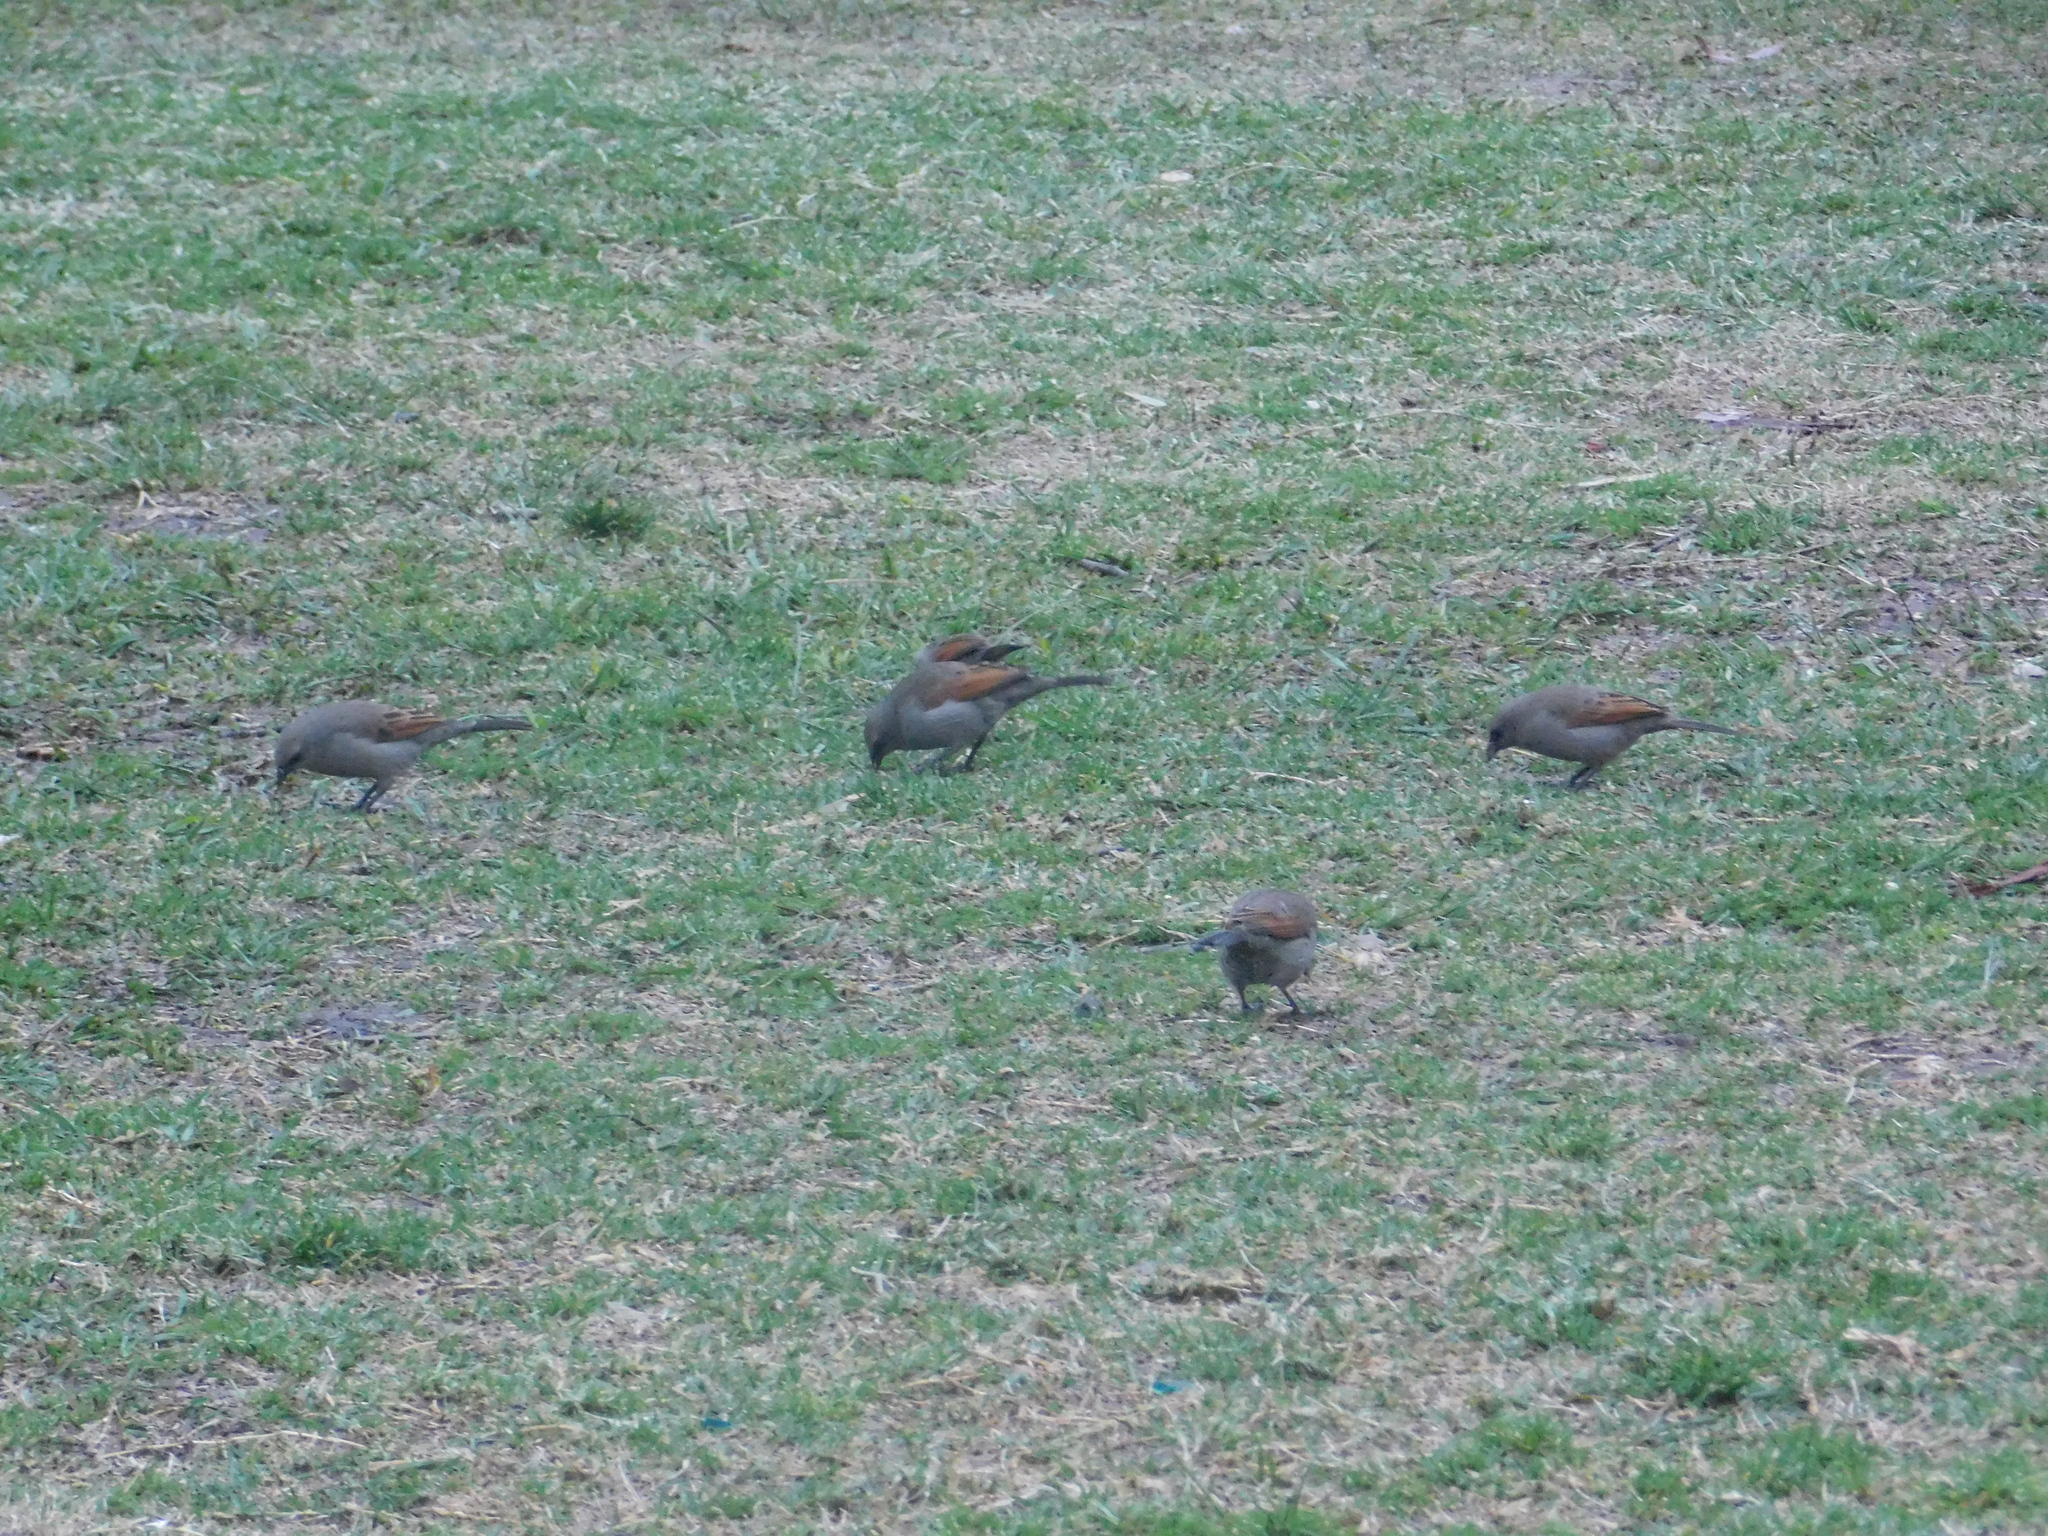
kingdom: Animalia
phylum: Chordata
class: Aves
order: Passeriformes
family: Icteridae
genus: Agelaioides
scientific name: Agelaioides badius
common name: Baywing
